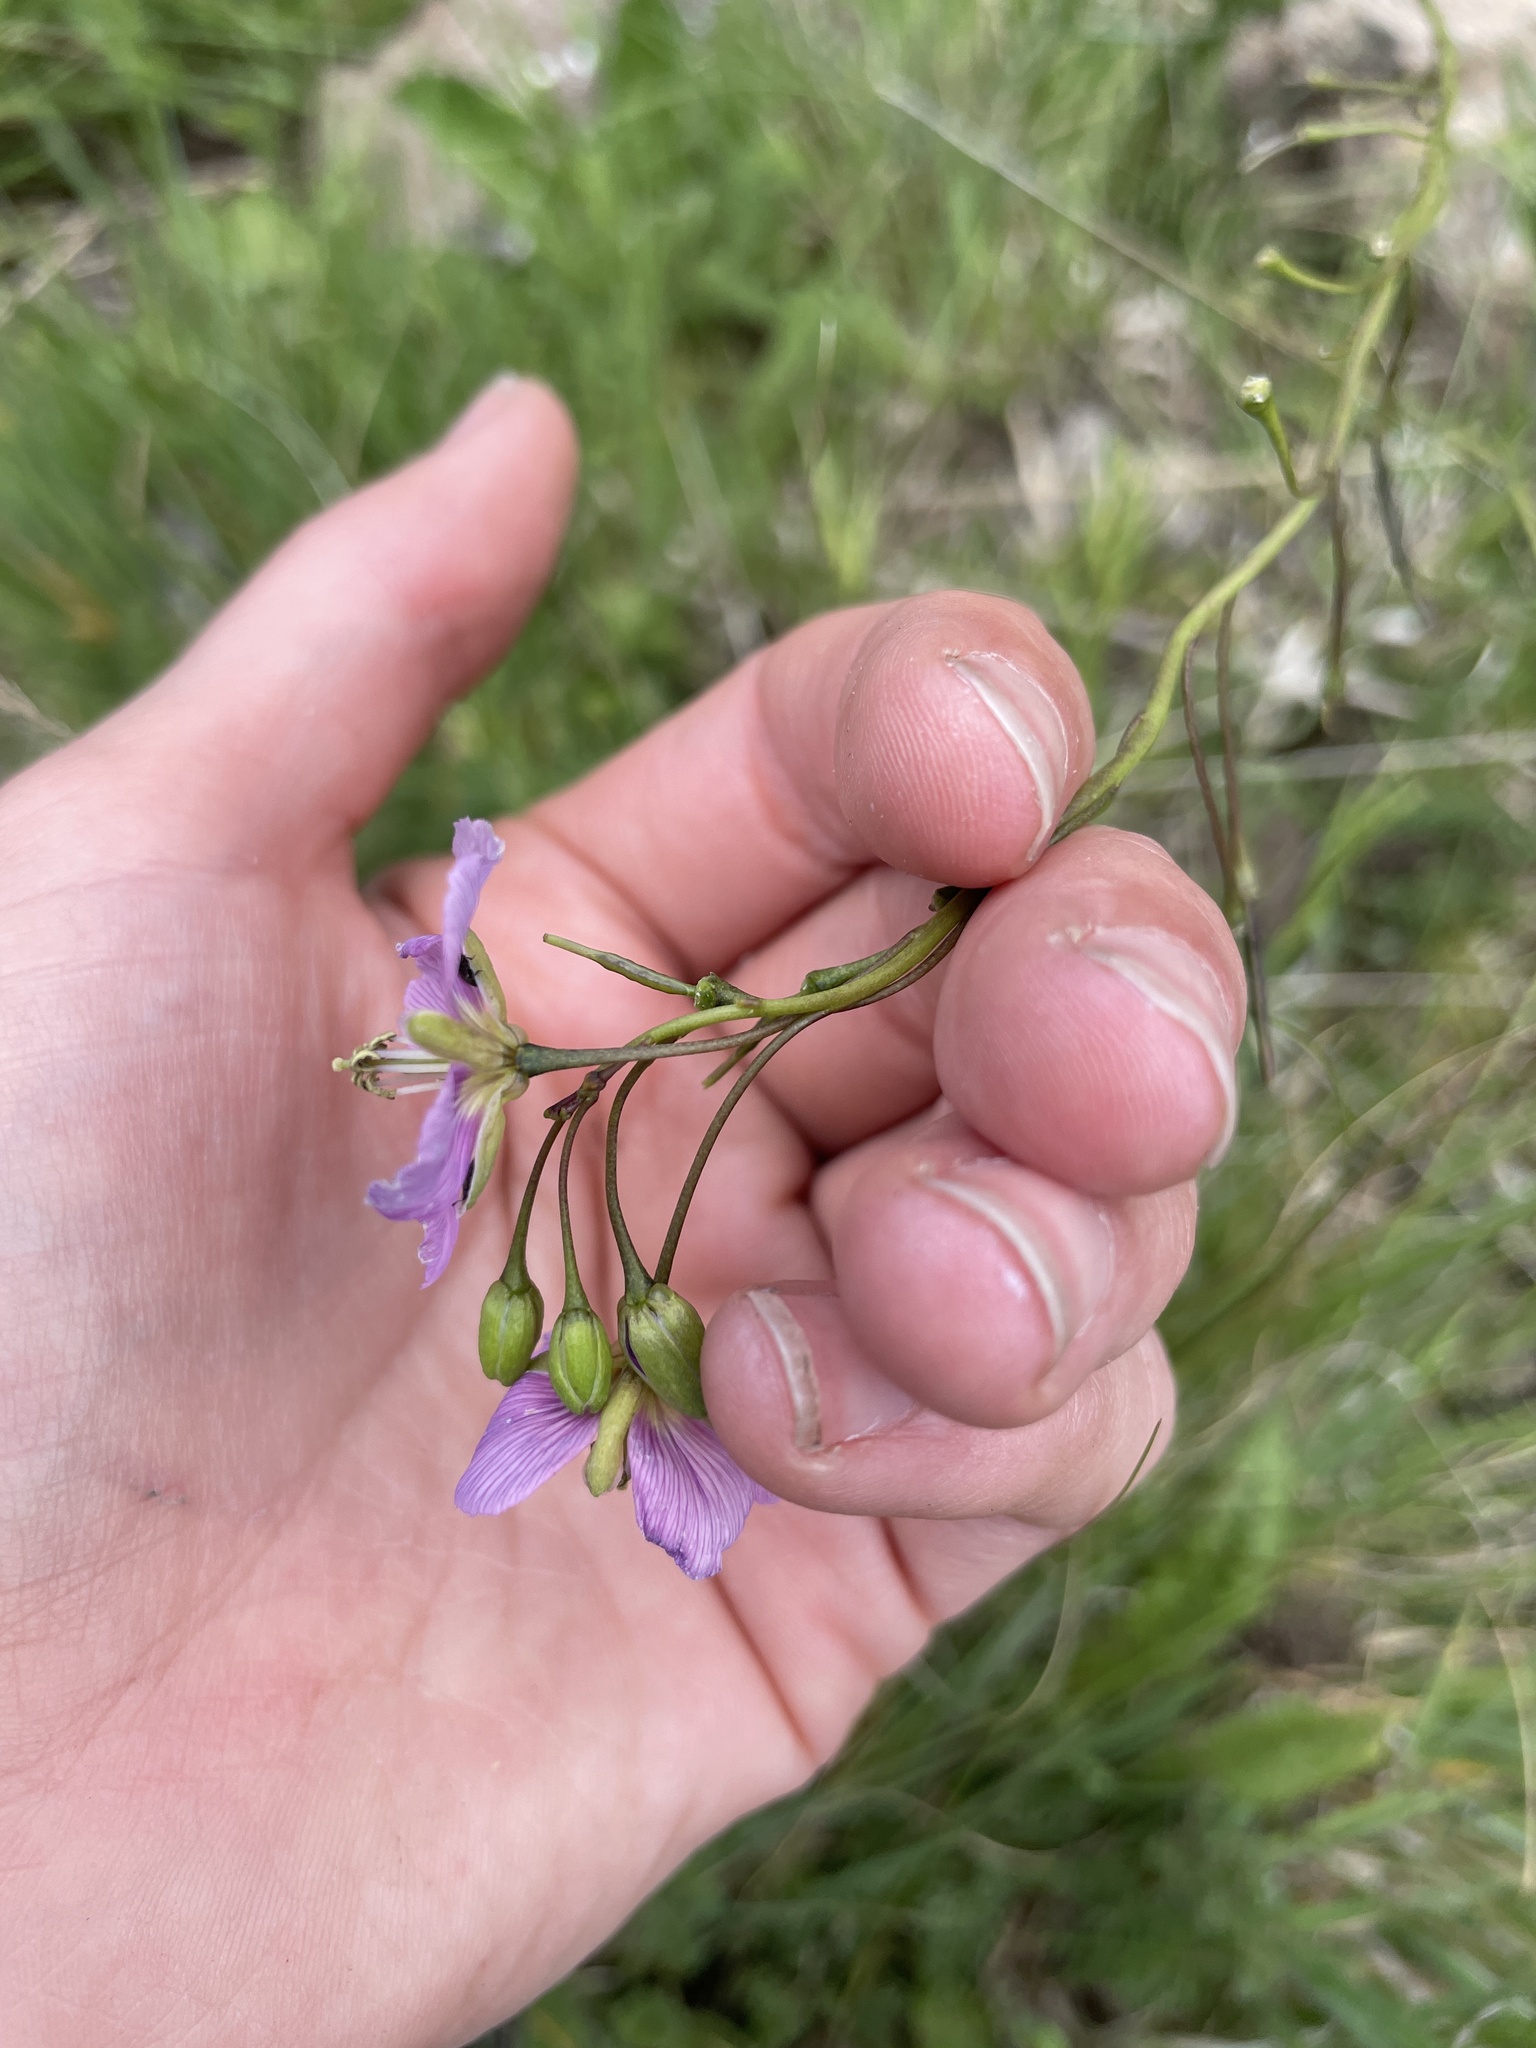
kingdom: Plantae
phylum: Tracheophyta
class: Magnoliopsida
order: Brassicales
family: Brassicaceae
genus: Heliophila
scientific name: Heliophila rigidiuscula
